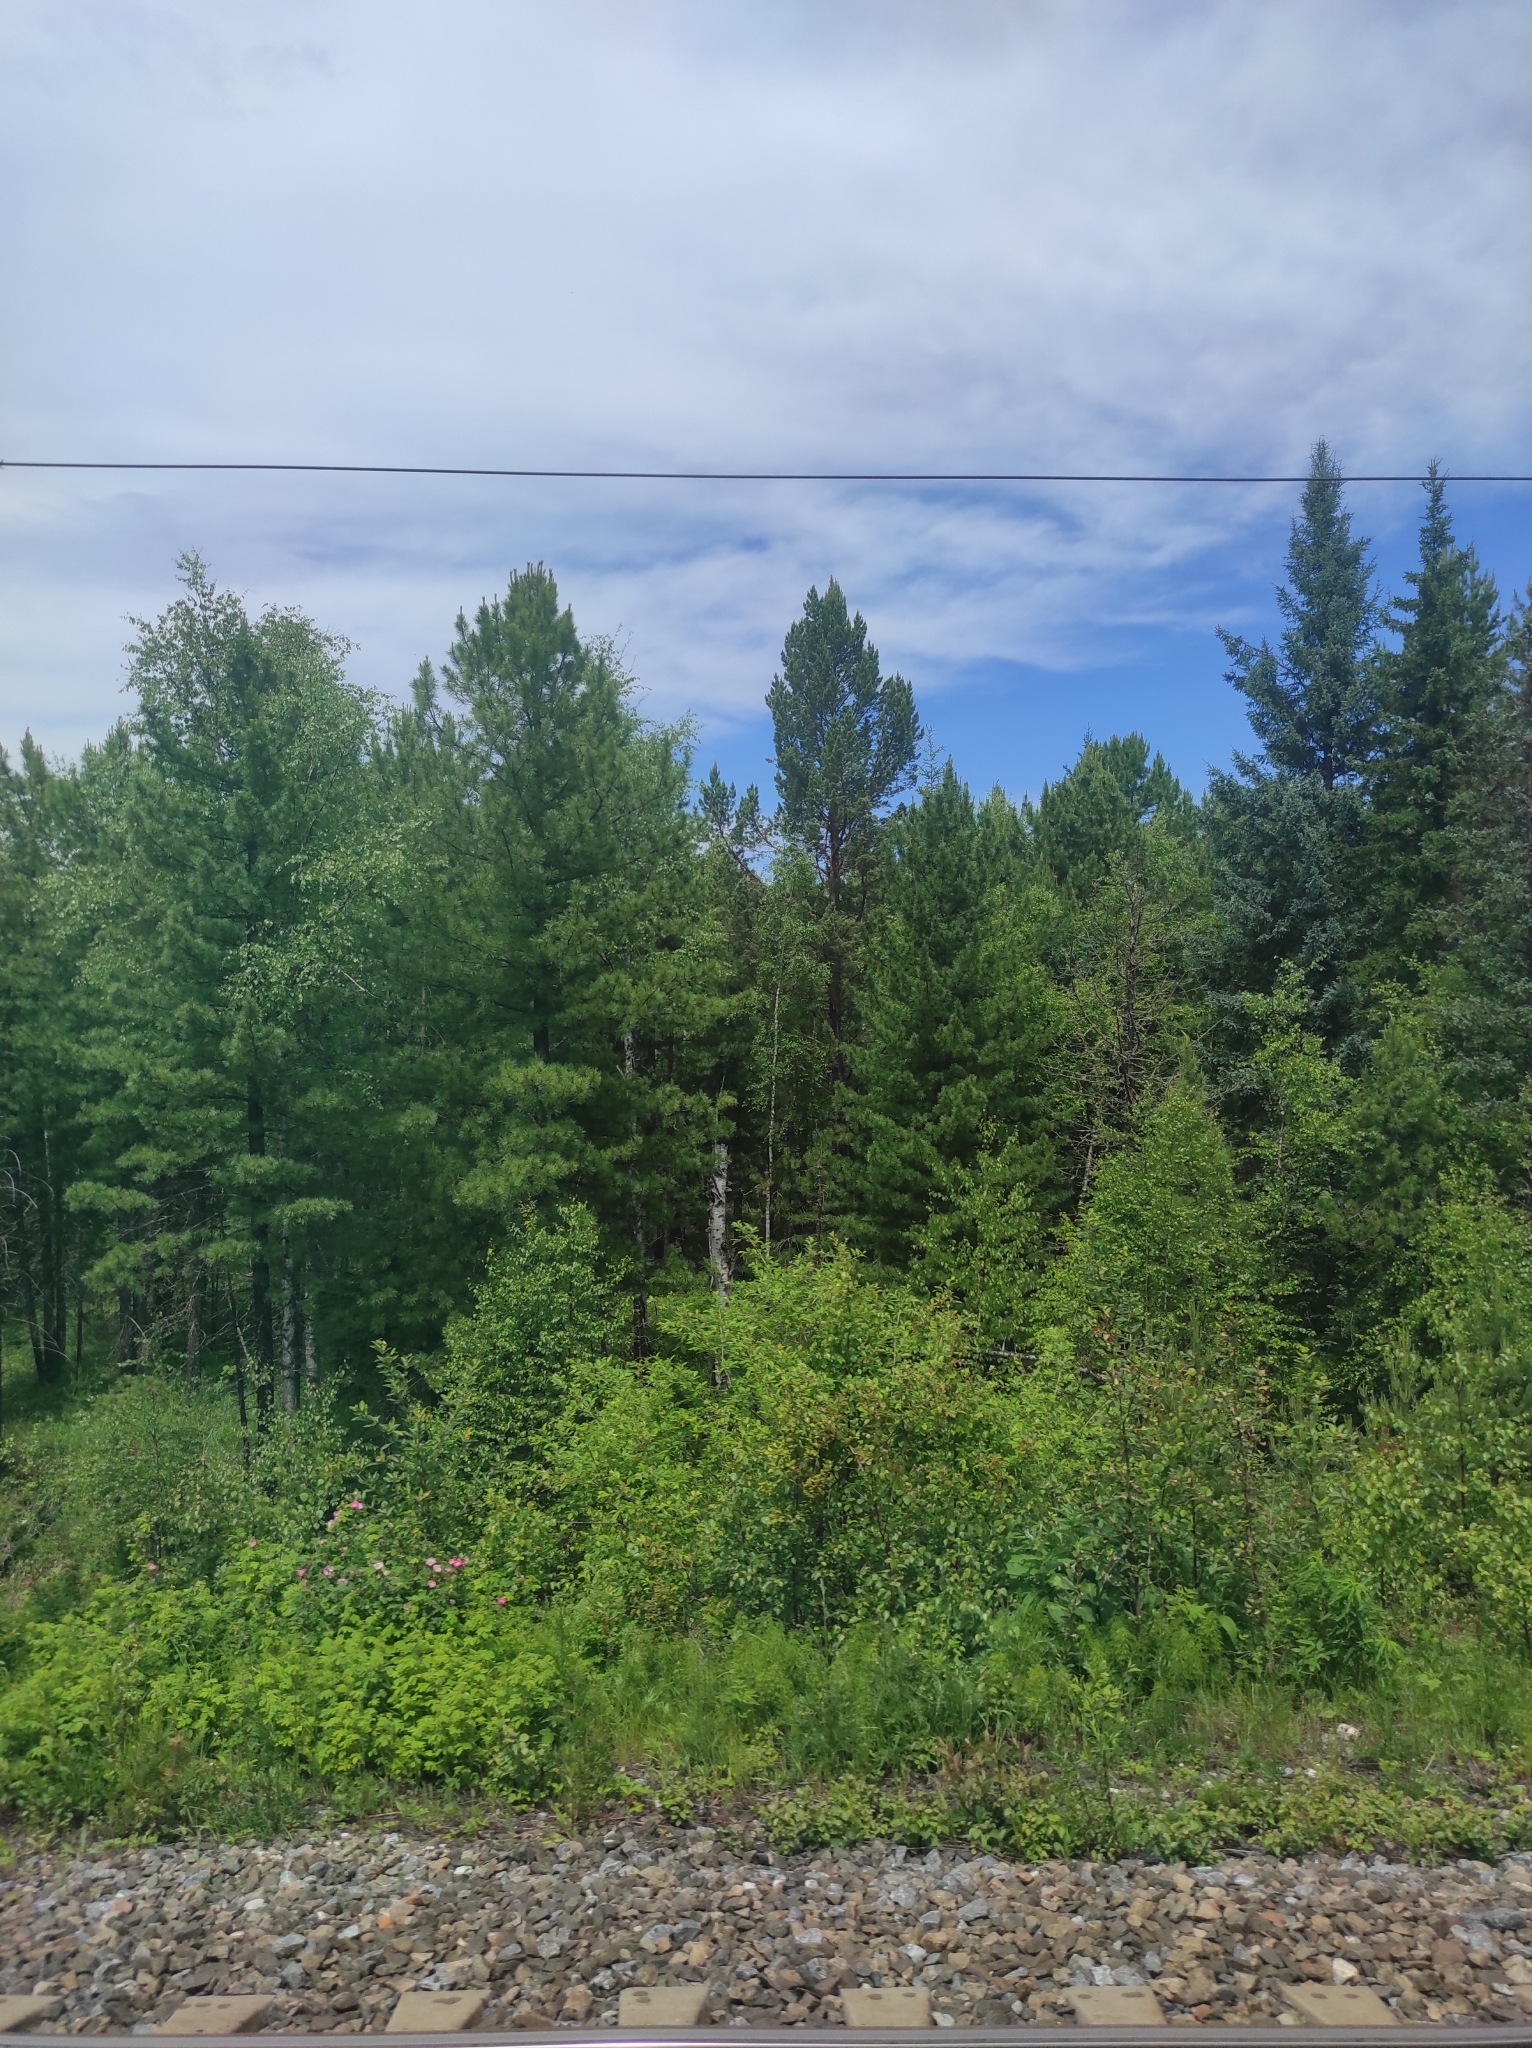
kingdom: Plantae
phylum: Tracheophyta
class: Pinopsida
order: Pinales
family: Pinaceae
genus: Pinus
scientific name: Pinus sibirica
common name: Siberian pine
